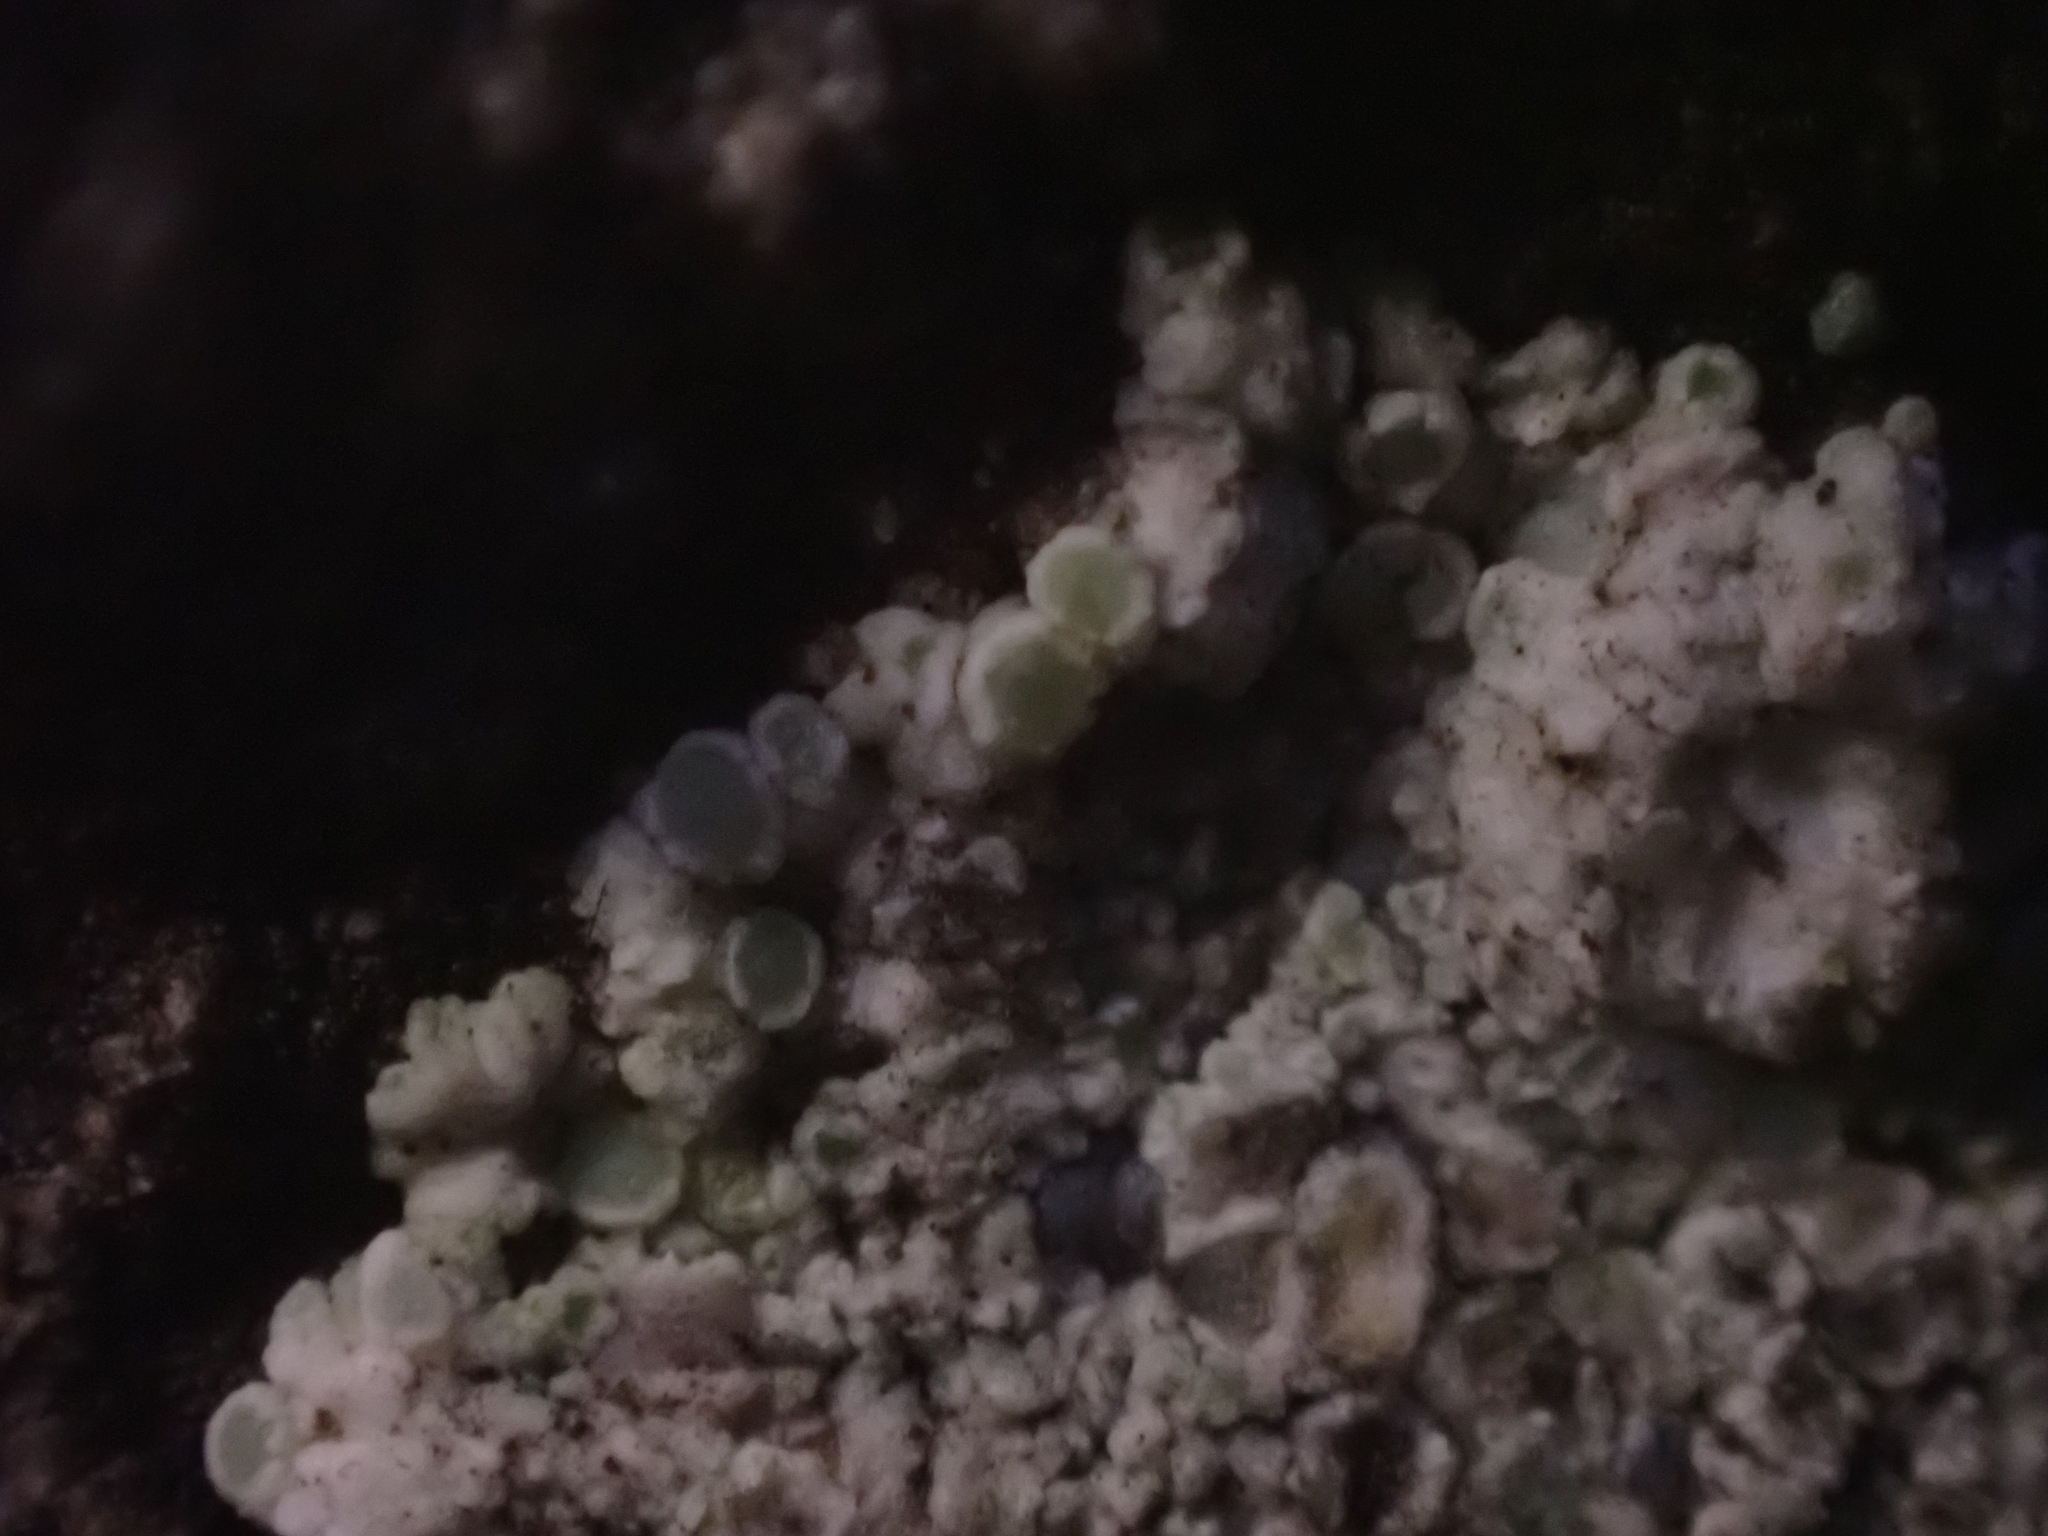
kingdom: Fungi
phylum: Ascomycota
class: Lecanoromycetes
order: Lecanorales
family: Lecanoraceae
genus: Polyozosia
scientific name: Polyozosia albescens
